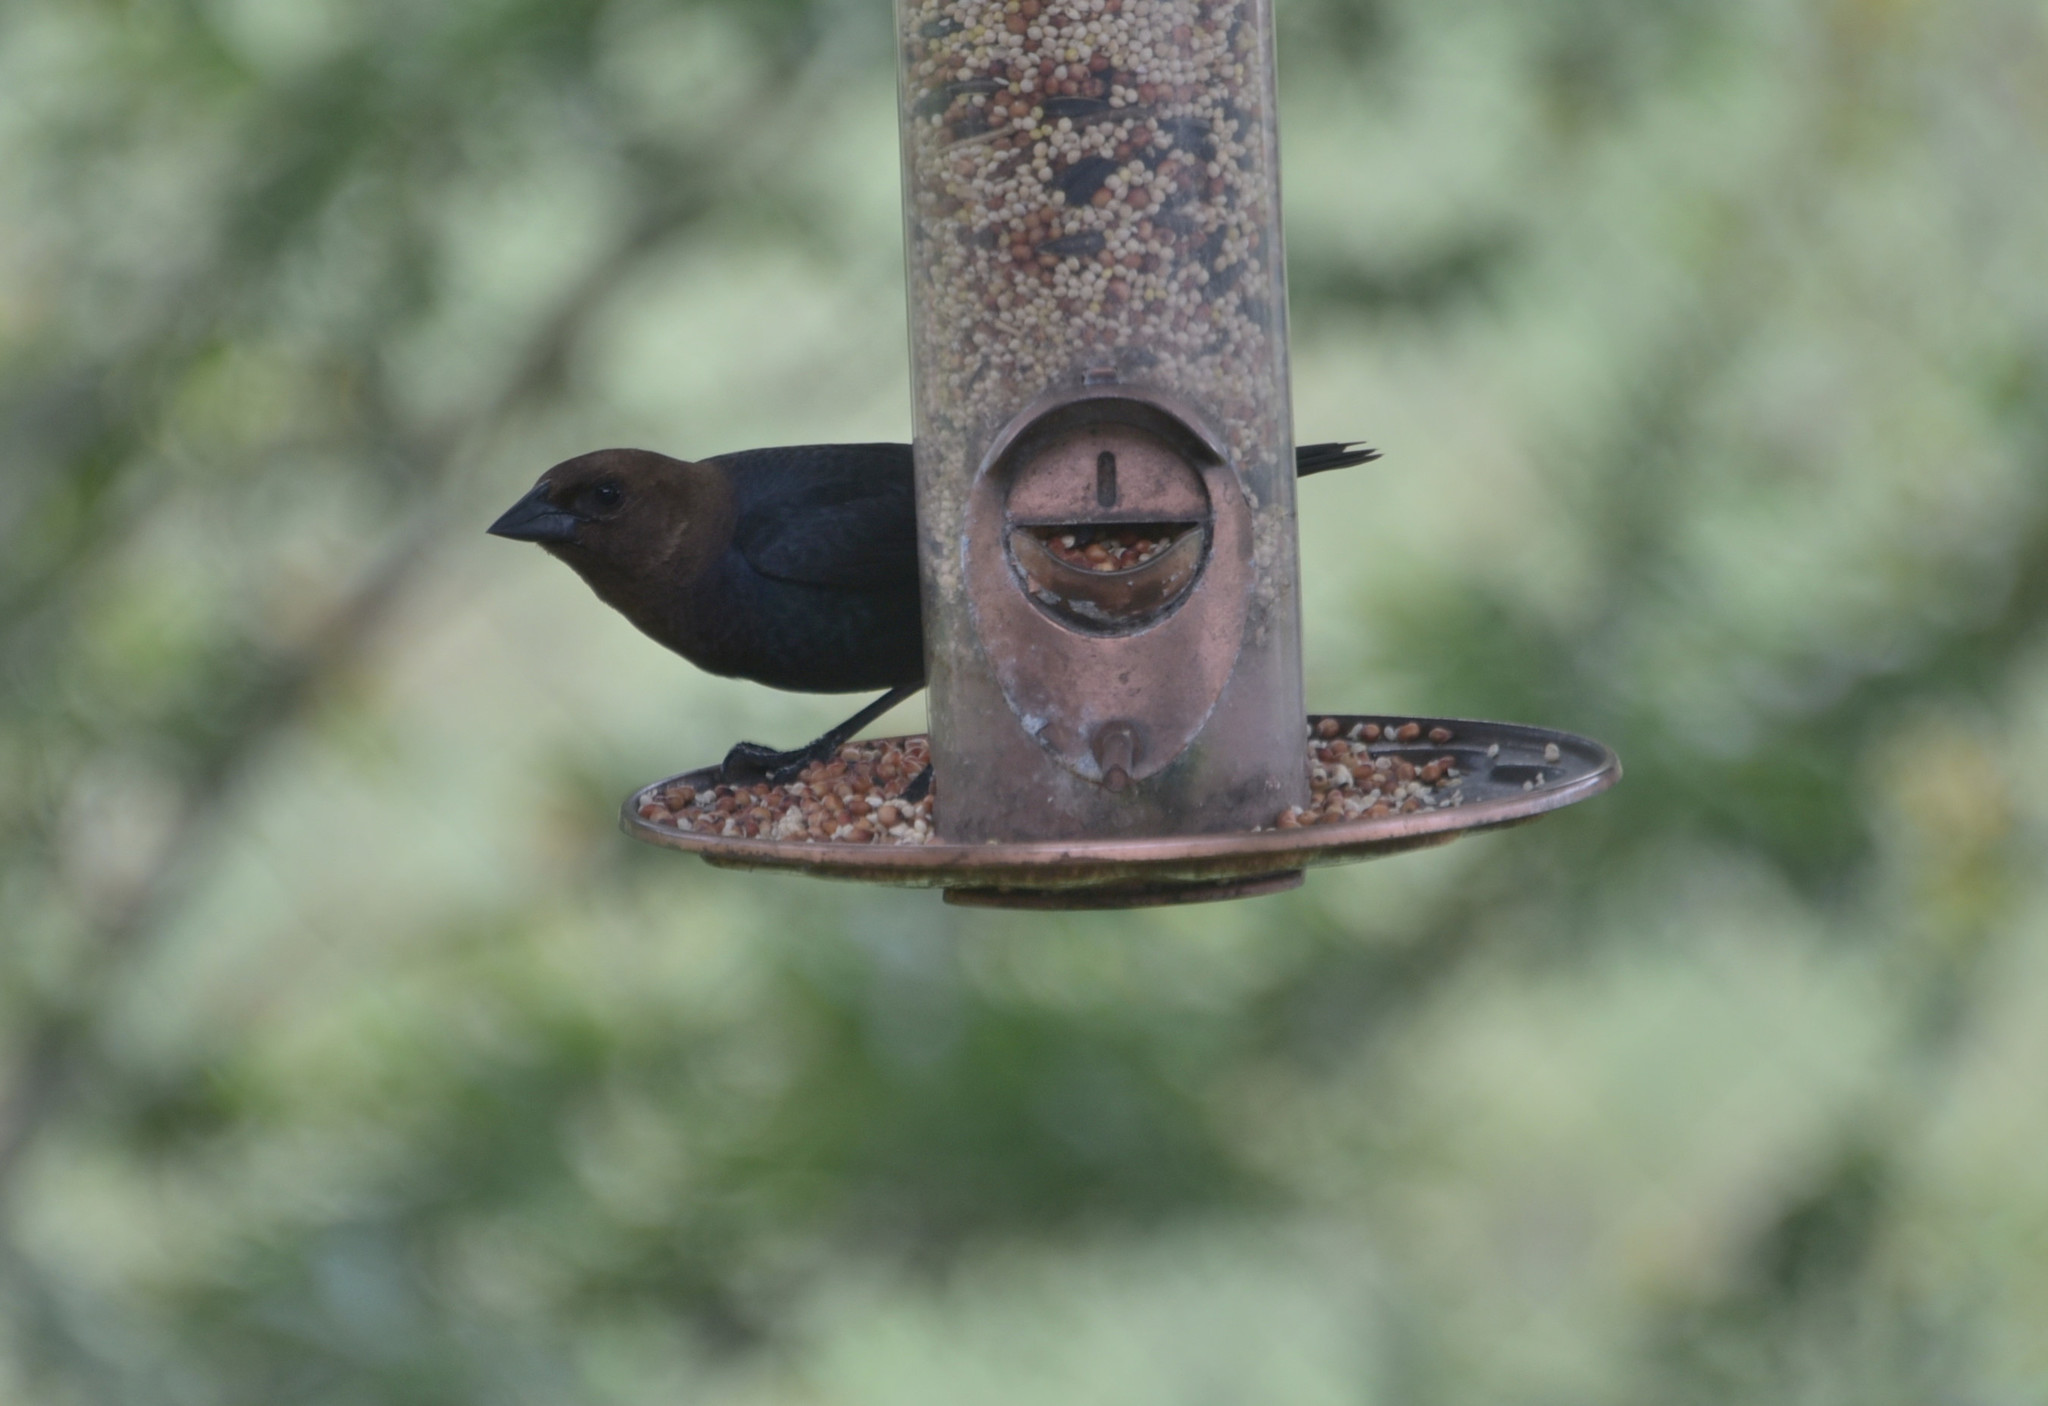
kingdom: Animalia
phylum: Chordata
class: Aves
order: Passeriformes
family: Icteridae
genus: Molothrus
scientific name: Molothrus ater
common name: Brown-headed cowbird
